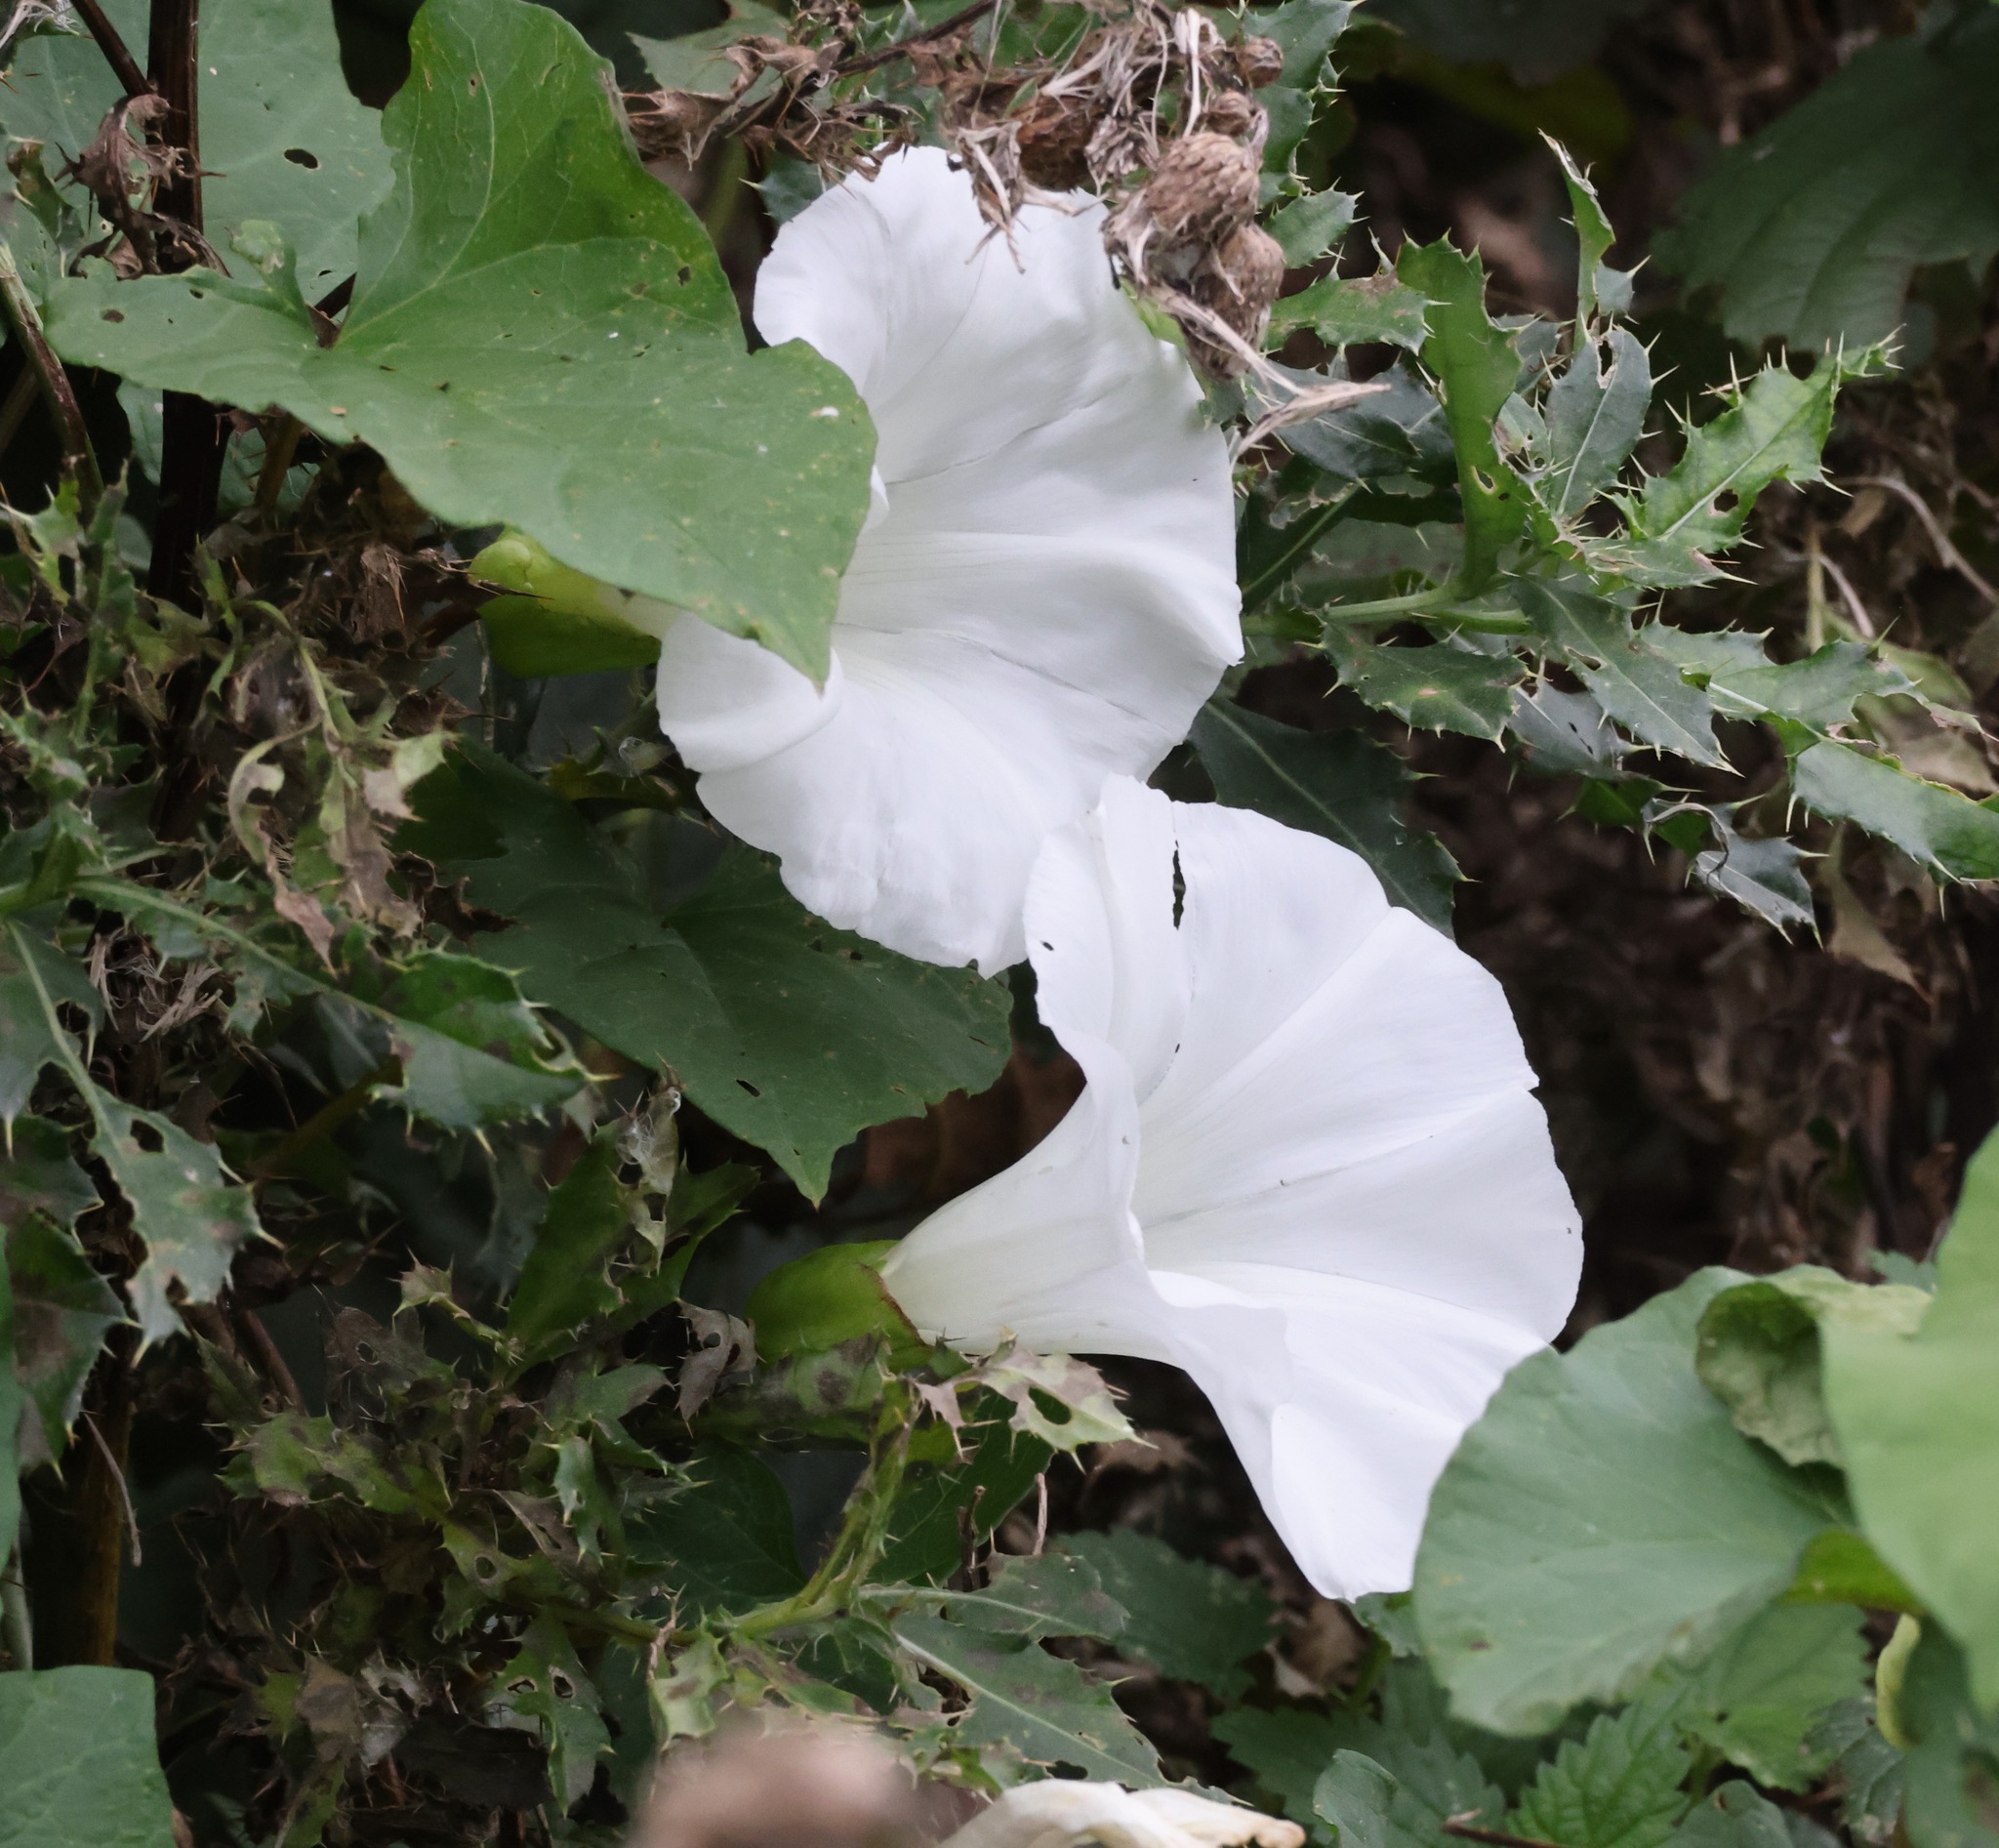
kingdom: Plantae
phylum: Tracheophyta
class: Magnoliopsida
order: Solanales
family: Convolvulaceae
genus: Calystegia
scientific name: Calystegia silvatica
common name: Large bindweed
